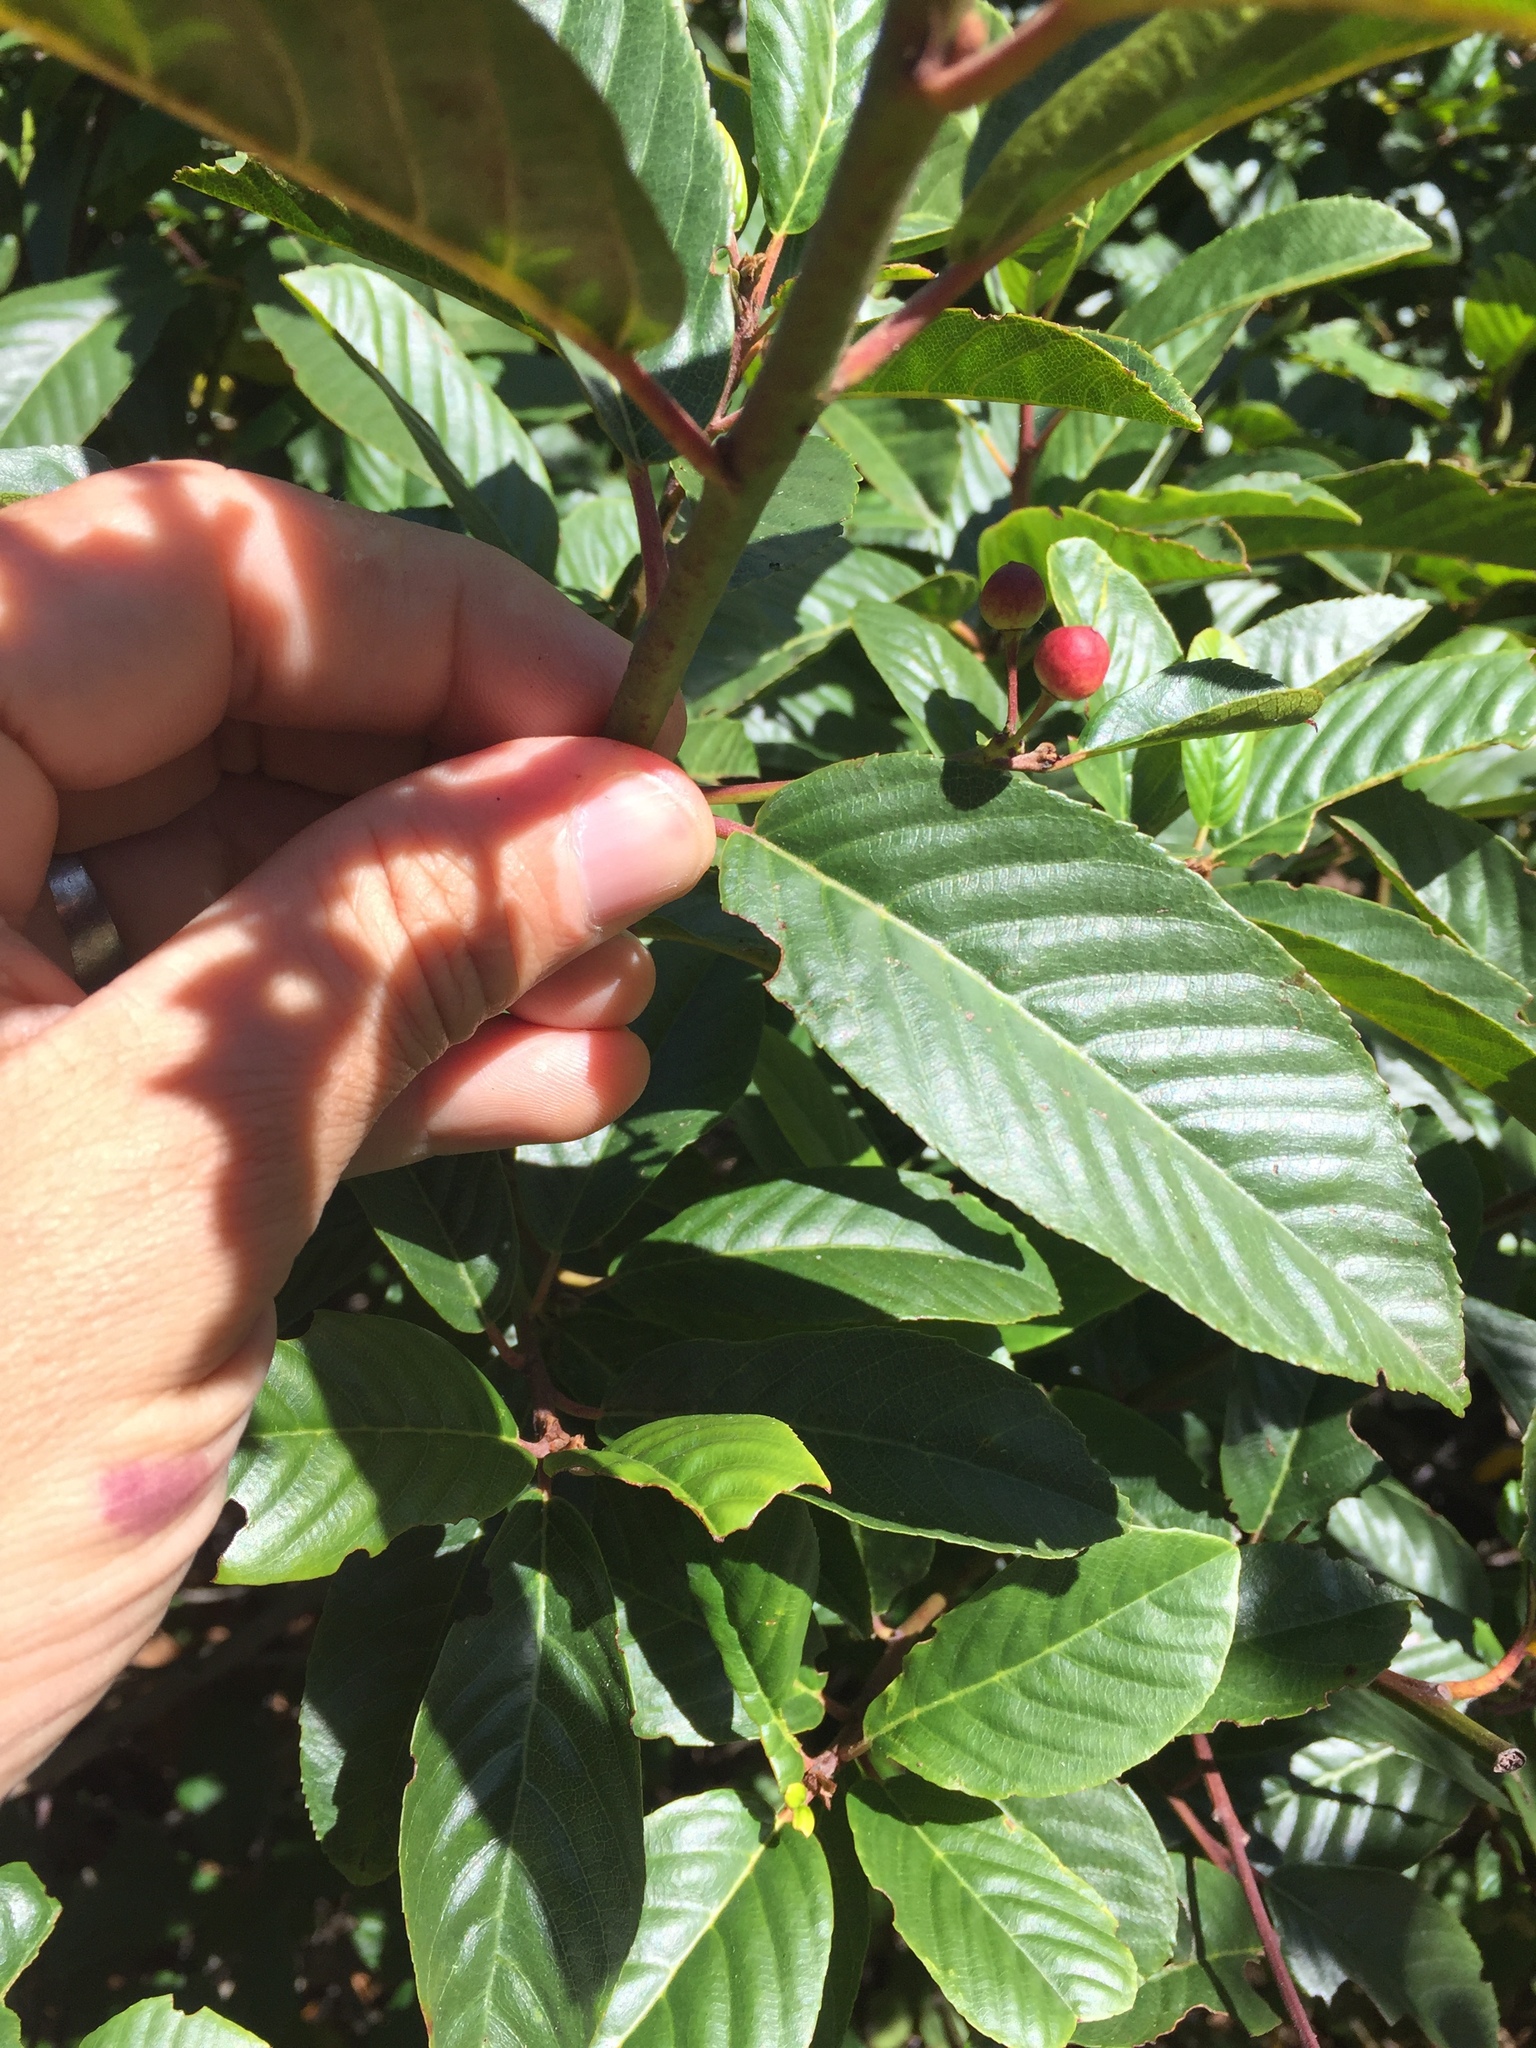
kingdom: Plantae
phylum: Tracheophyta
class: Magnoliopsida
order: Rosales
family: Rhamnaceae
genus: Frangula
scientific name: Frangula purshiana
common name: Cascara buckthorn
